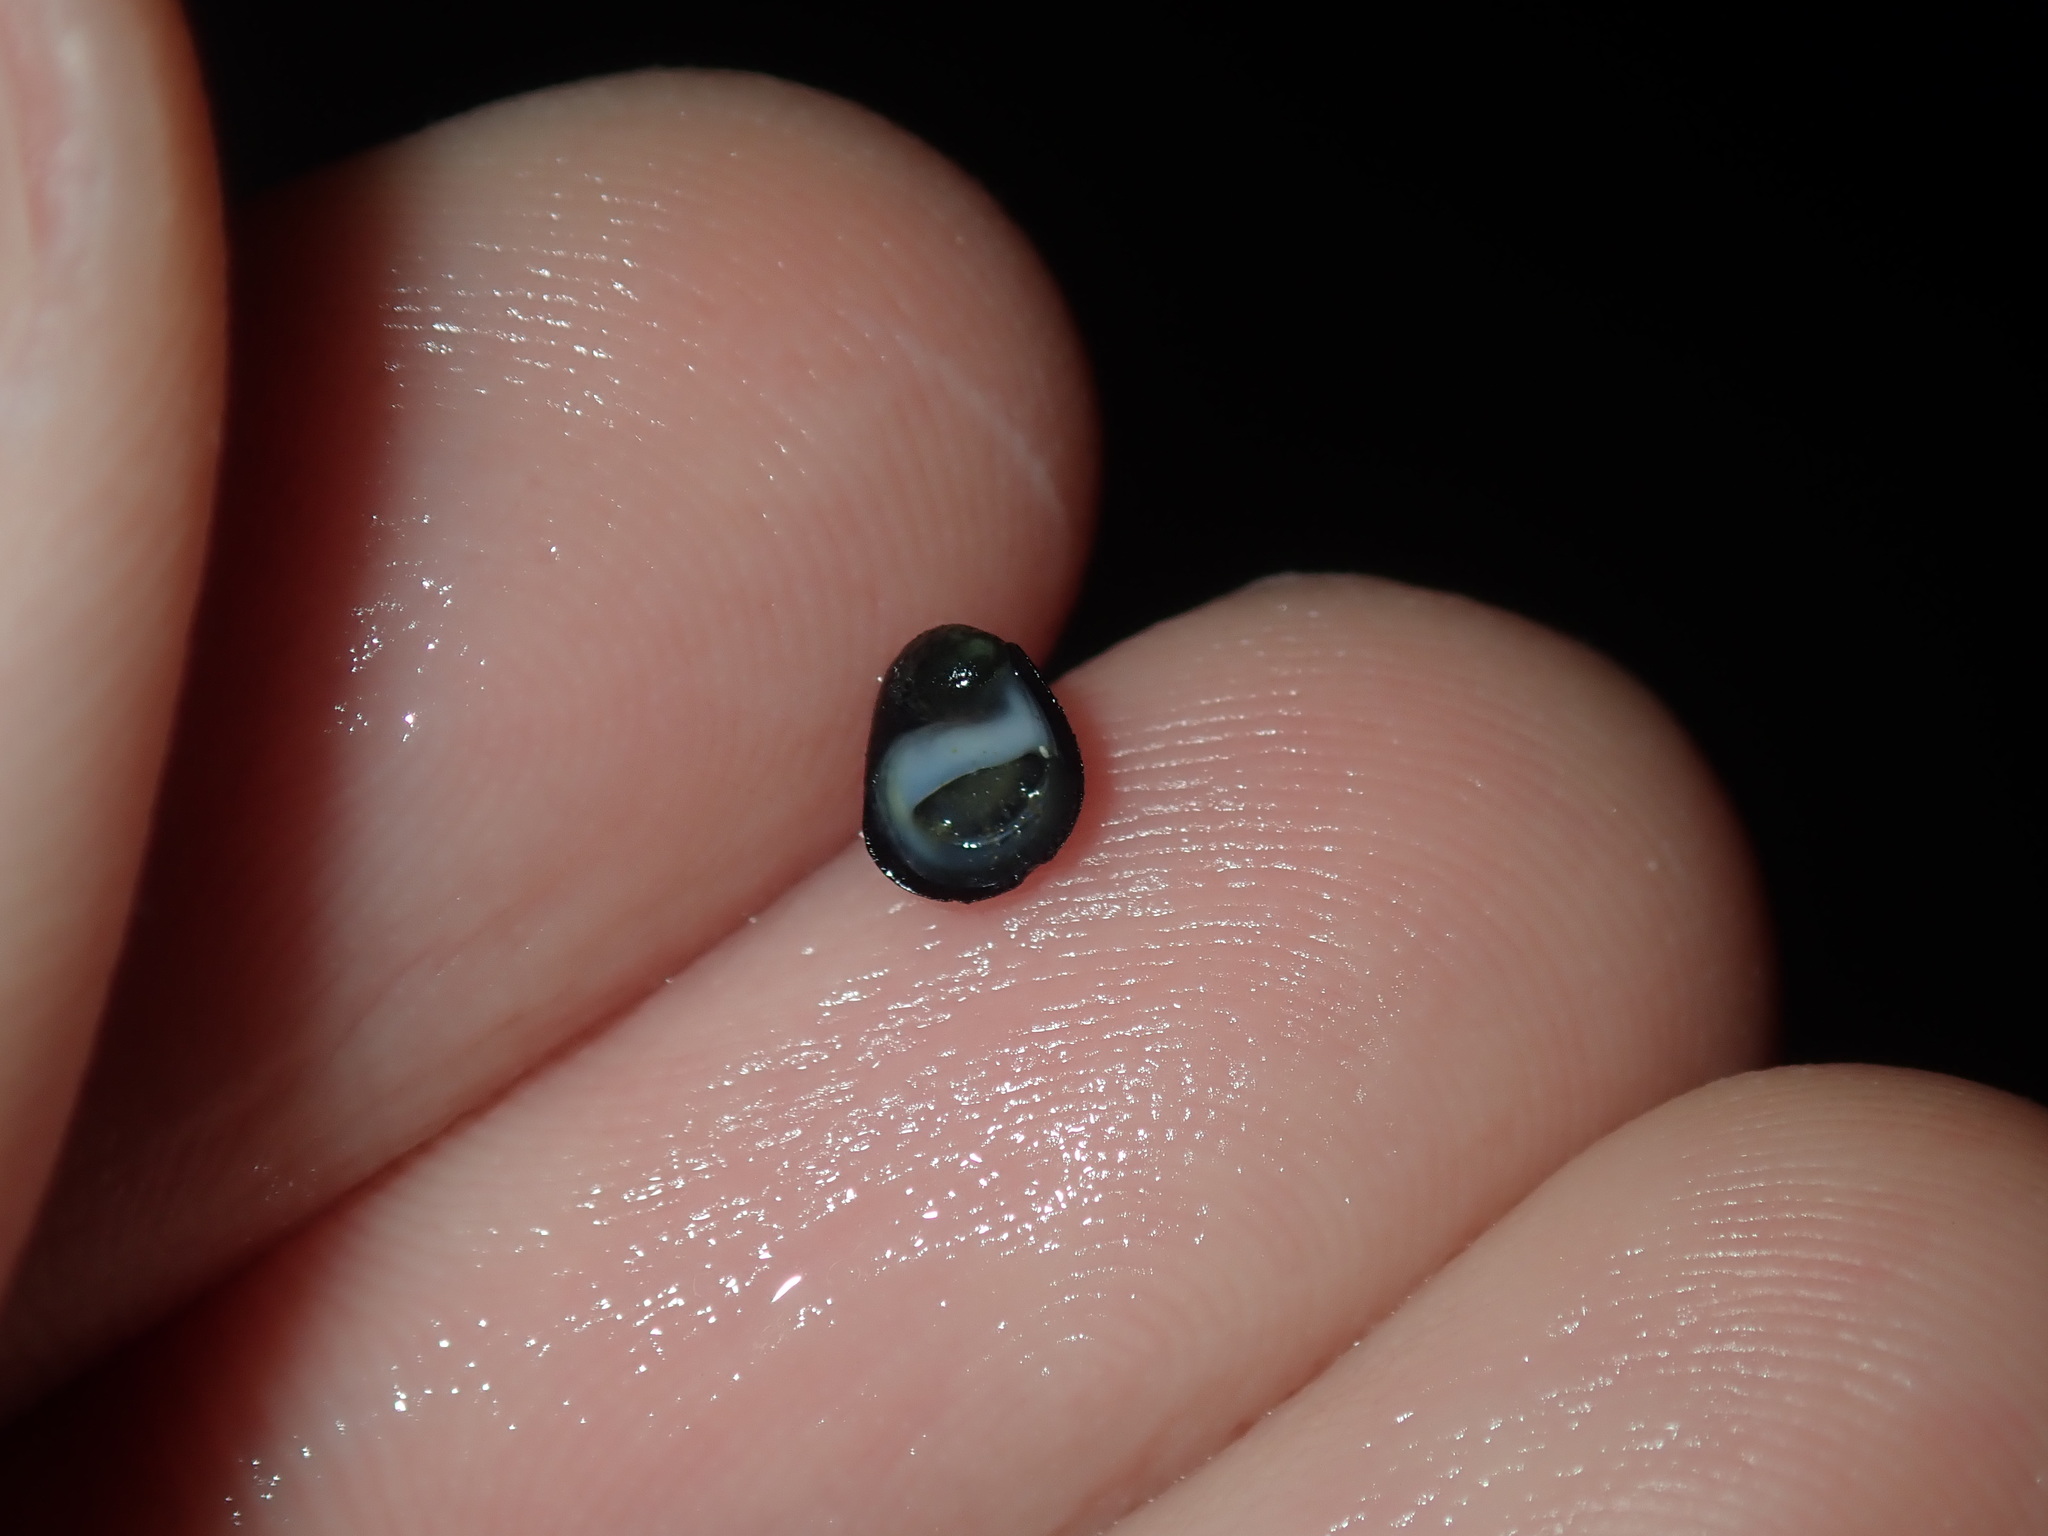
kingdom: Animalia
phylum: Mollusca
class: Gastropoda
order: Cycloneritida
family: Neritidae
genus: Nerita
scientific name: Nerita melanotragus
